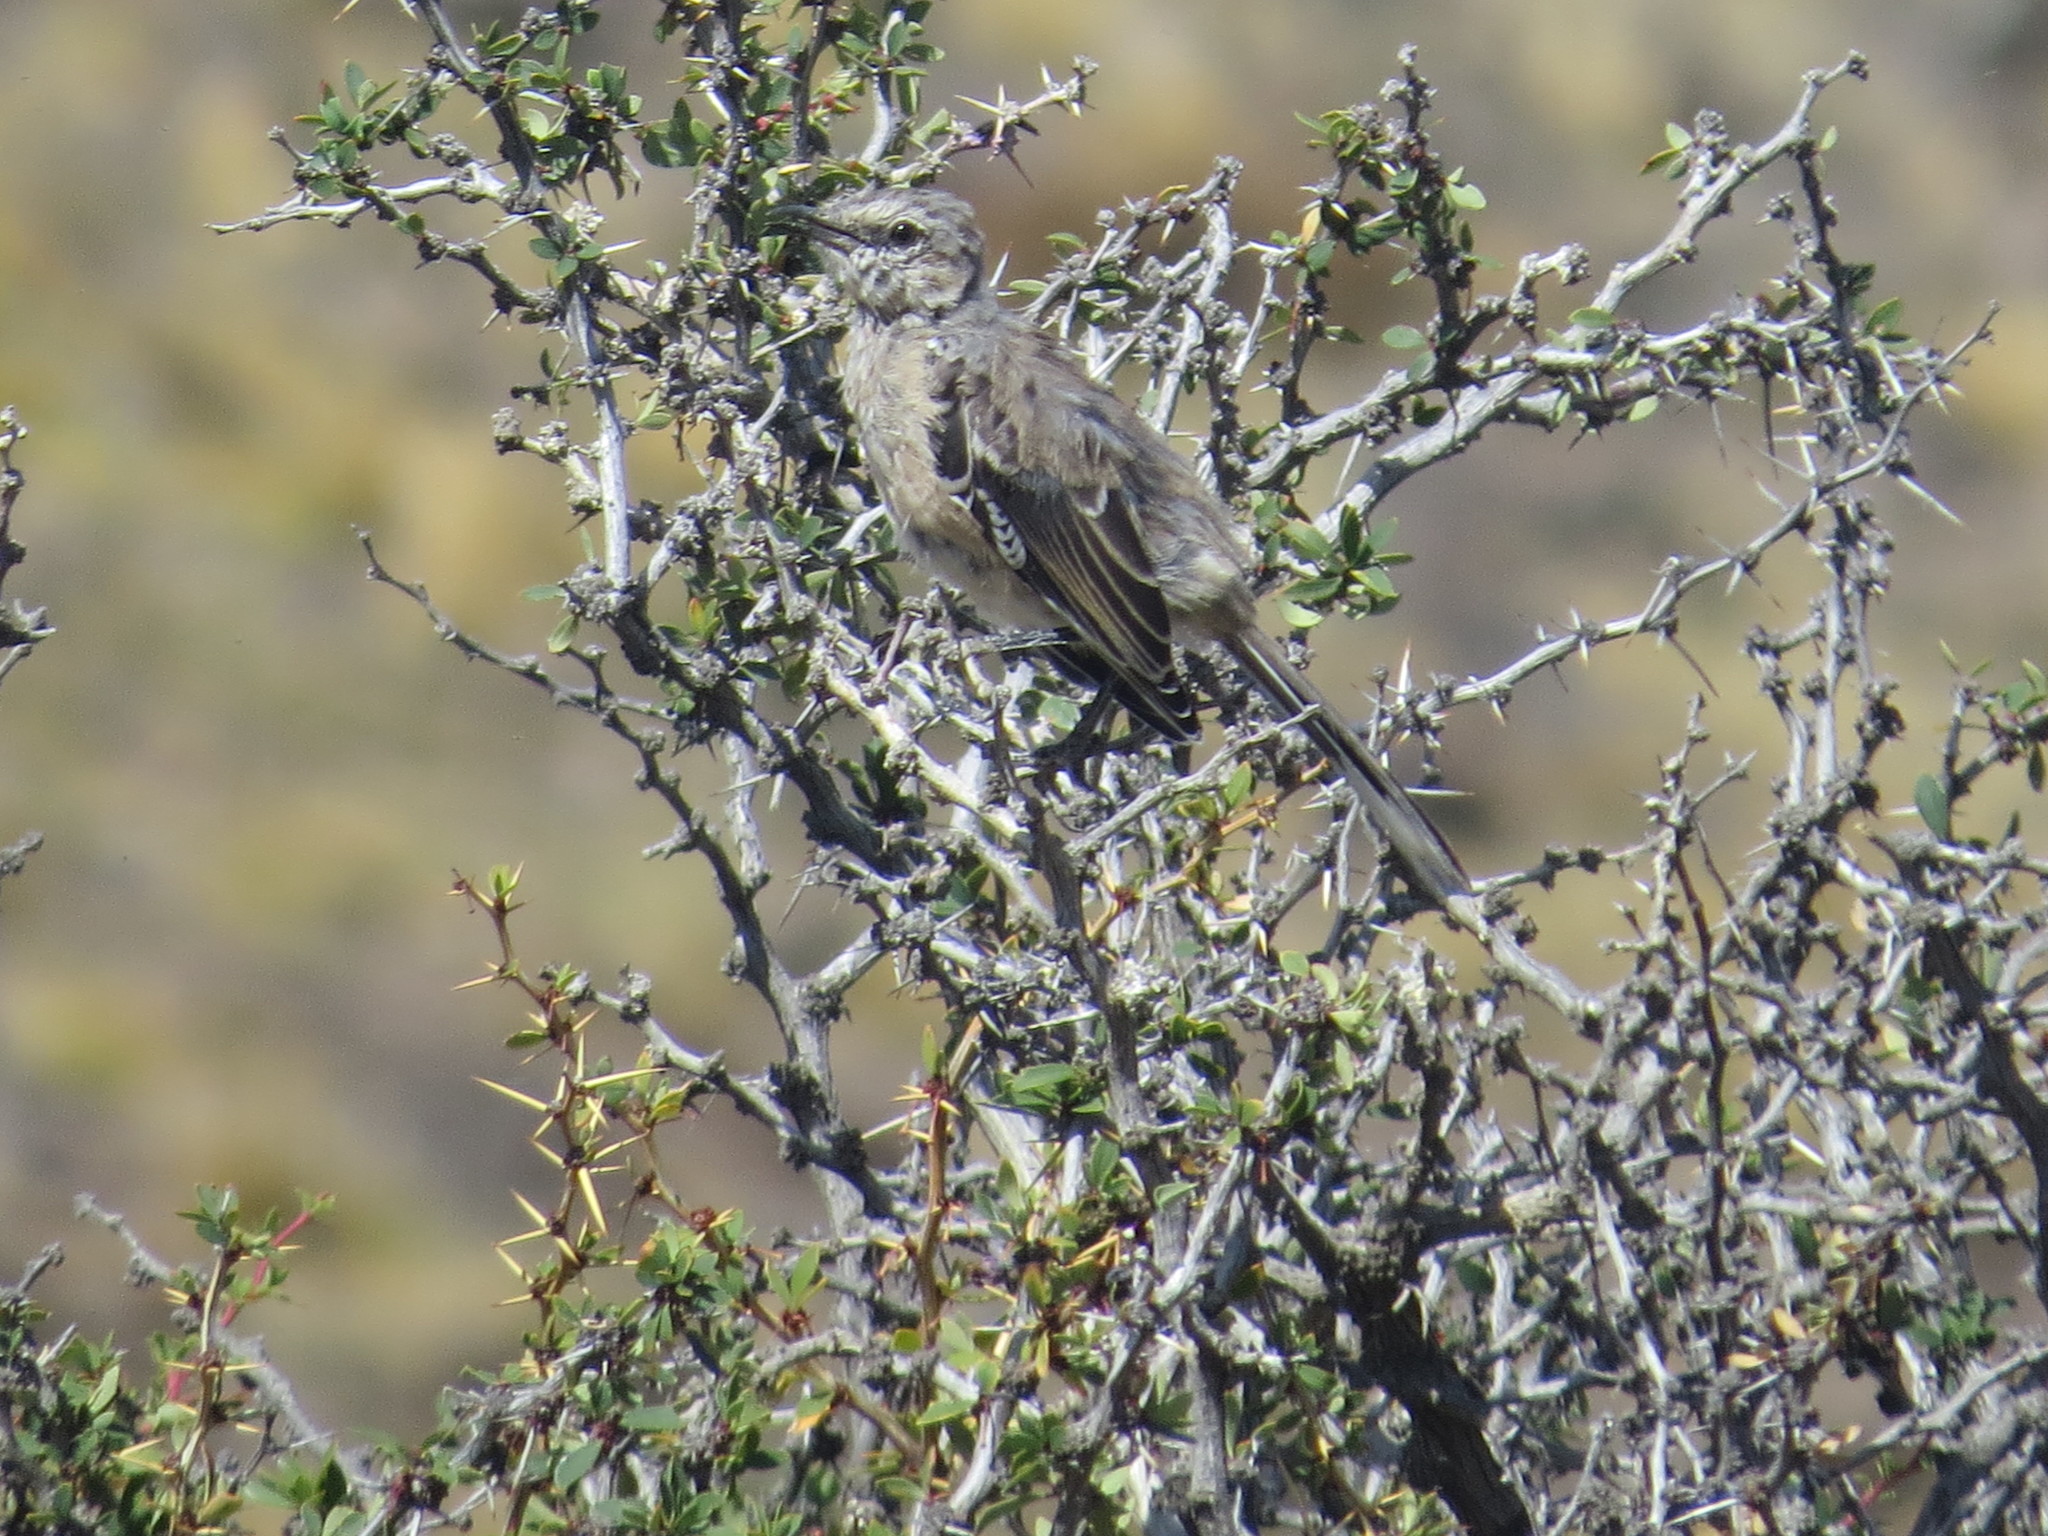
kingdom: Animalia
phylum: Chordata
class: Aves
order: Passeriformes
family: Mimidae
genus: Mimus
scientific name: Mimus patagonicus
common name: Patagonian mockingbird
